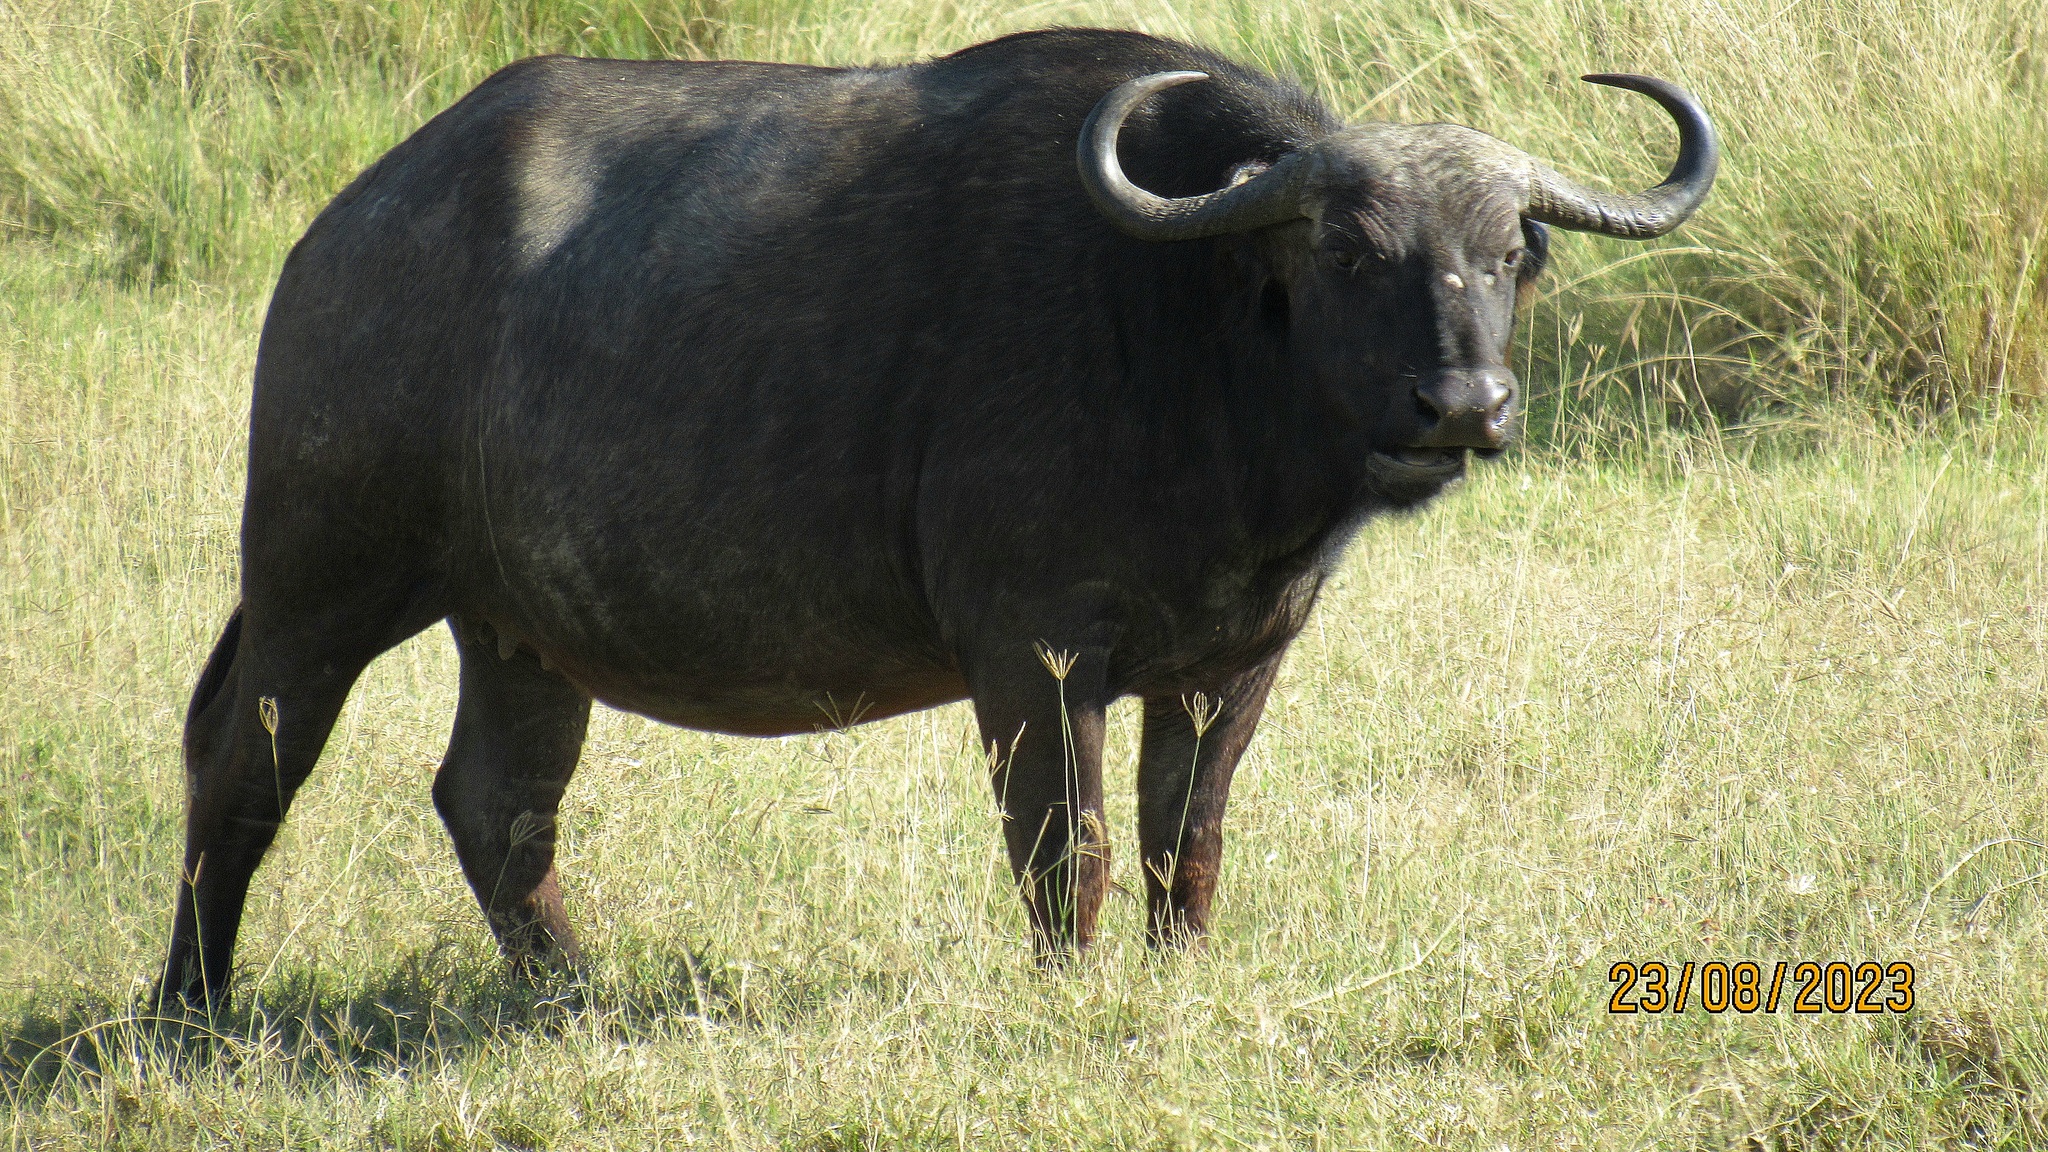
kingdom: Animalia
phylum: Chordata
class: Mammalia
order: Artiodactyla
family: Bovidae
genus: Syncerus
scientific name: Syncerus caffer
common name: African buffalo
